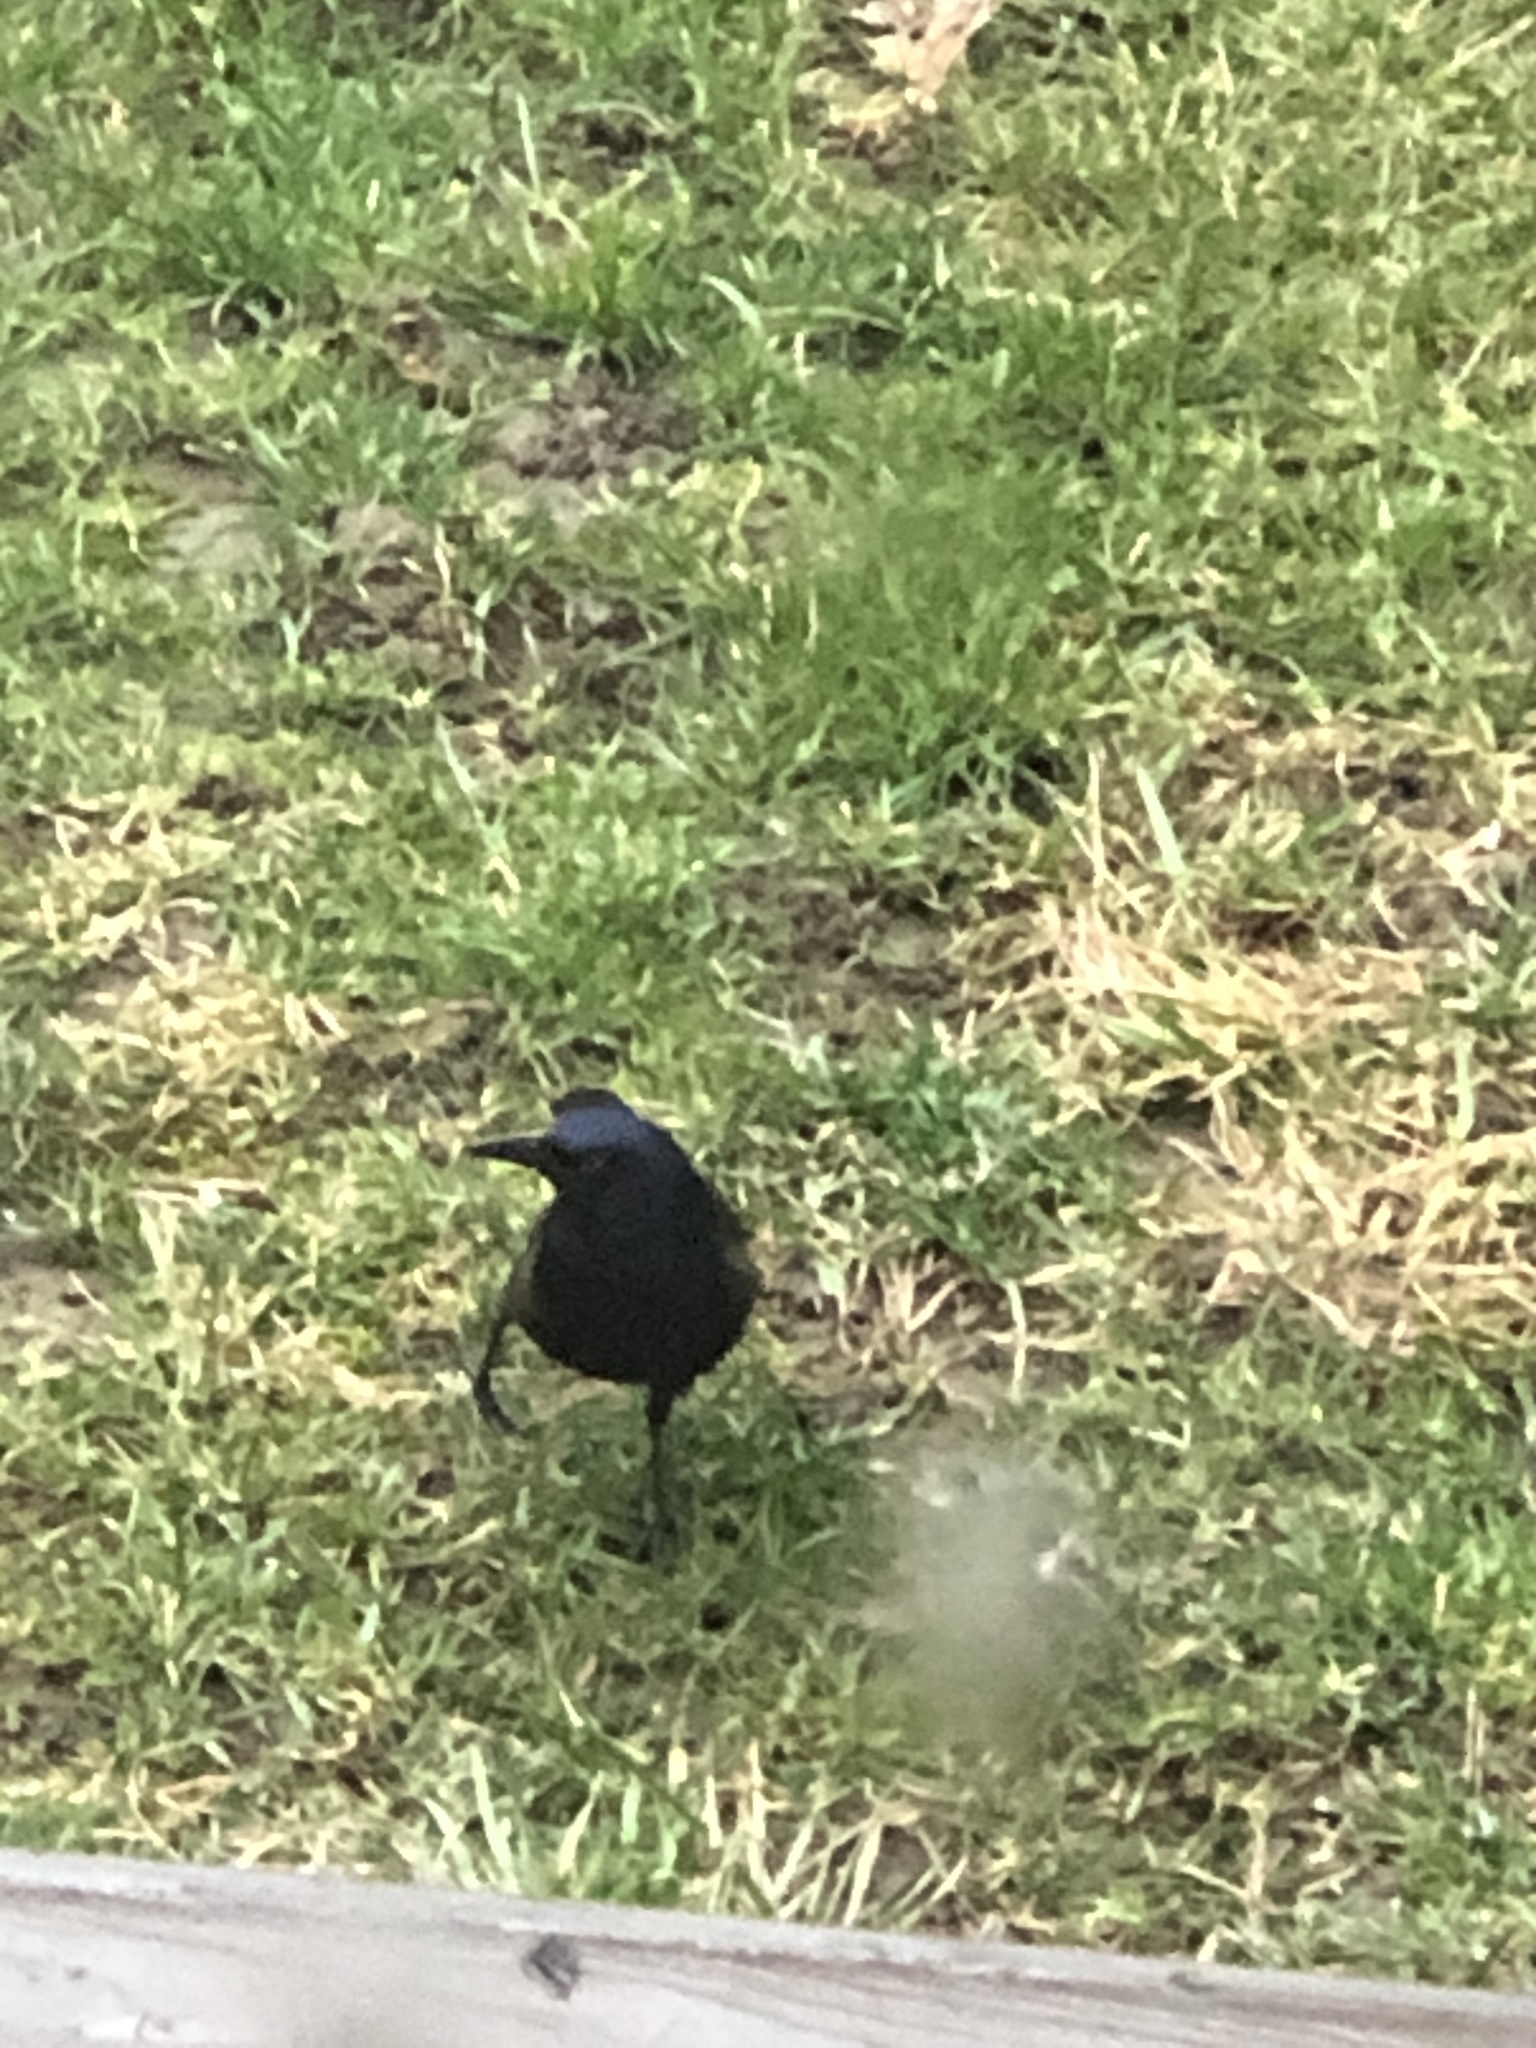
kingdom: Animalia
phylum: Chordata
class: Aves
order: Passeriformes
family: Icteridae
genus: Quiscalus
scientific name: Quiscalus quiscula
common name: Common grackle
